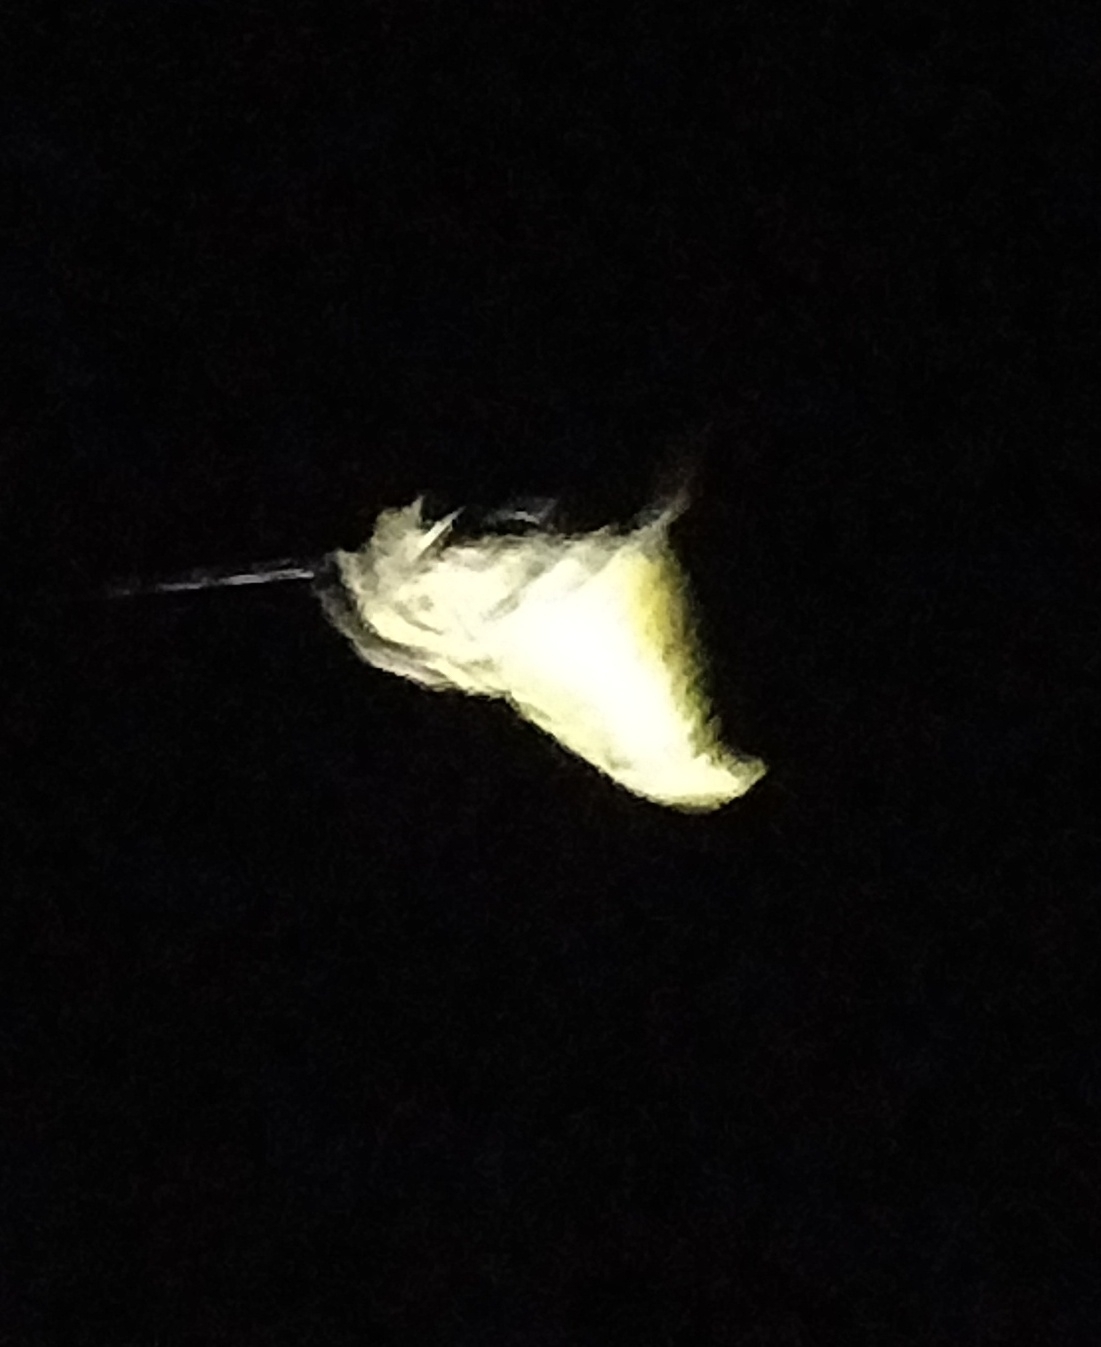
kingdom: Animalia
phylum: Arthropoda
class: Arachnida
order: Araneae
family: Araneidae
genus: Eriovixia
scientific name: Eriovixia gryffindori
